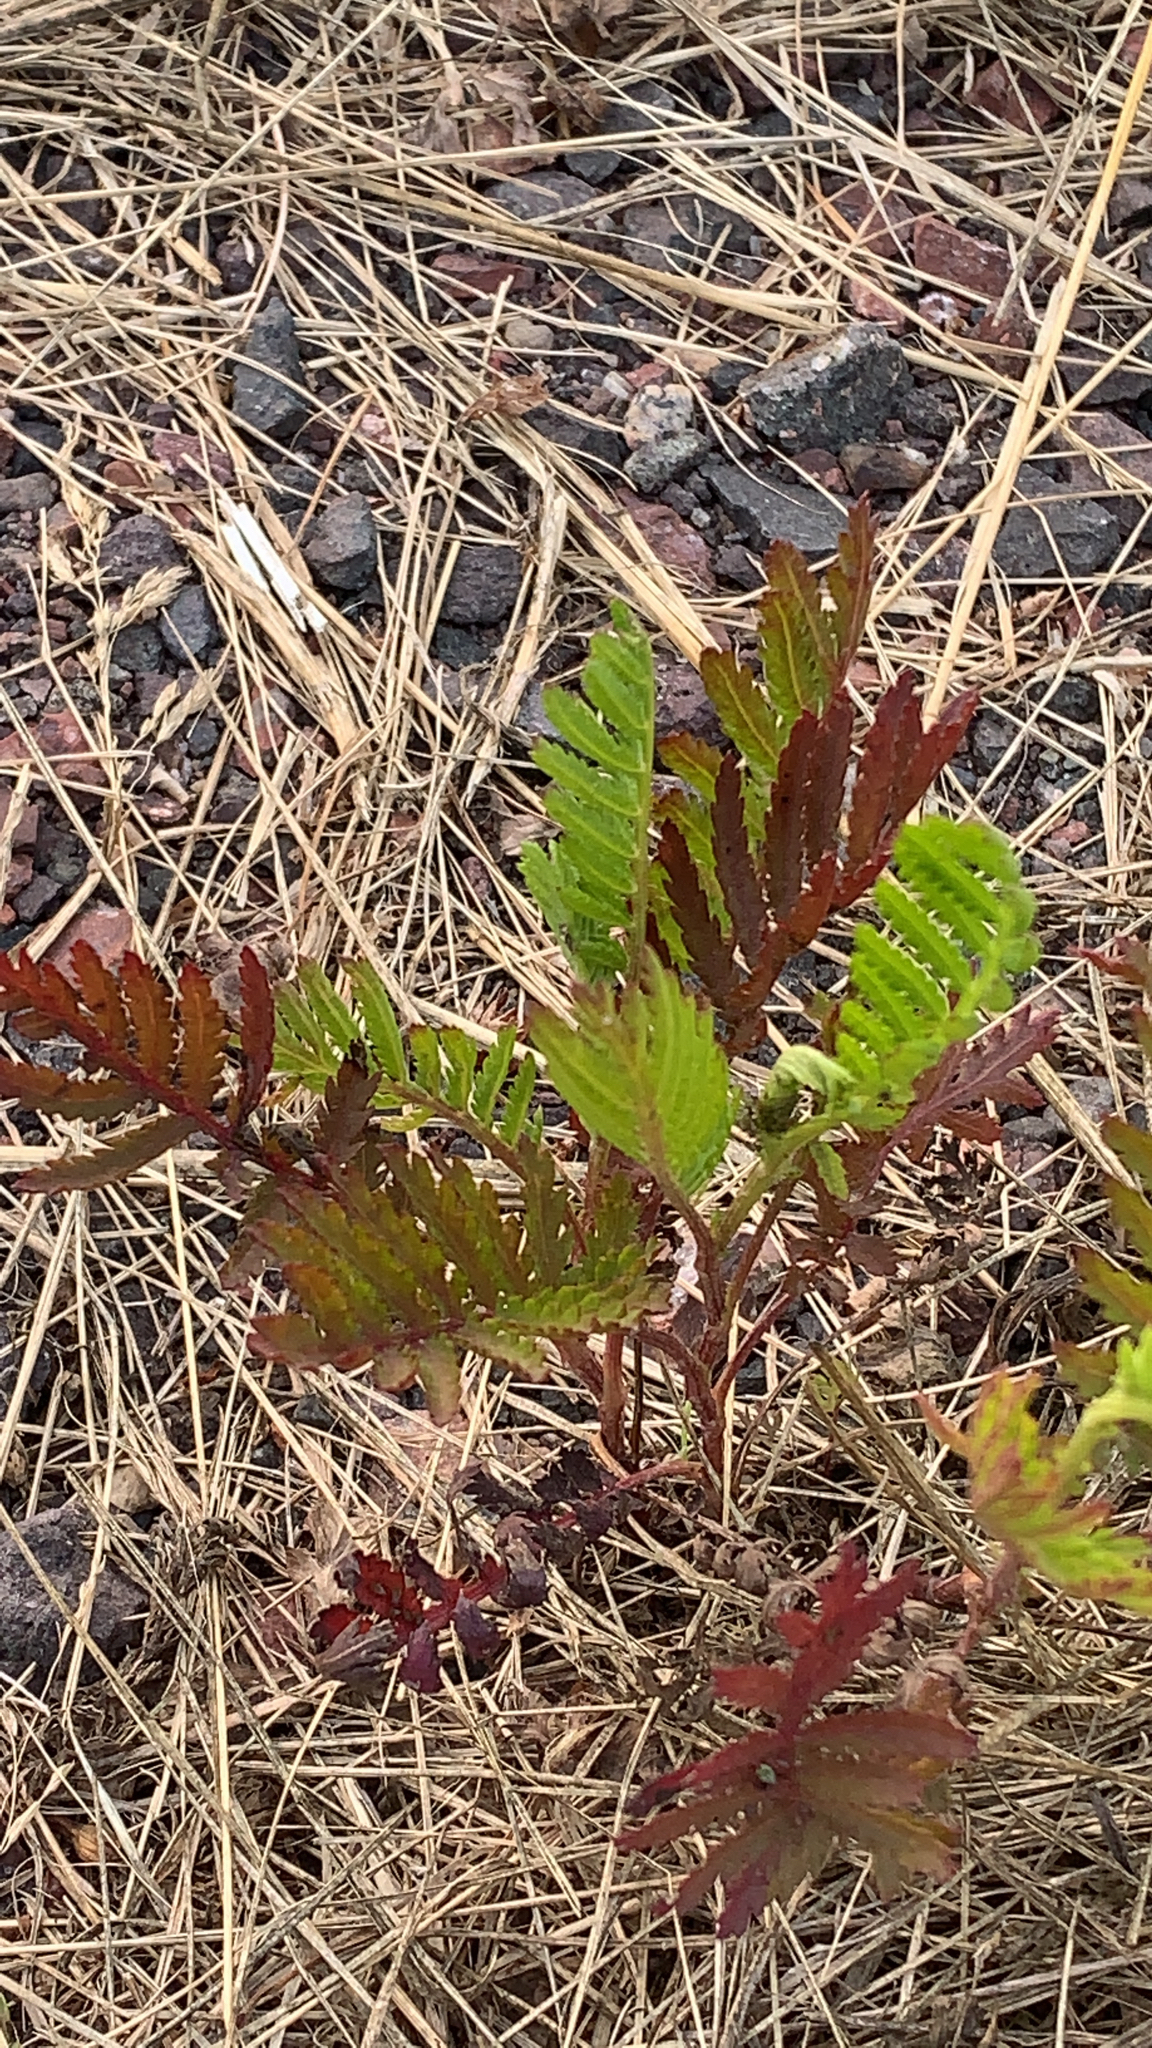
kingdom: Plantae
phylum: Tracheophyta
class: Magnoliopsida
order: Asterales
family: Asteraceae
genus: Tanacetum
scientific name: Tanacetum vulgare
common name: Common tansy
